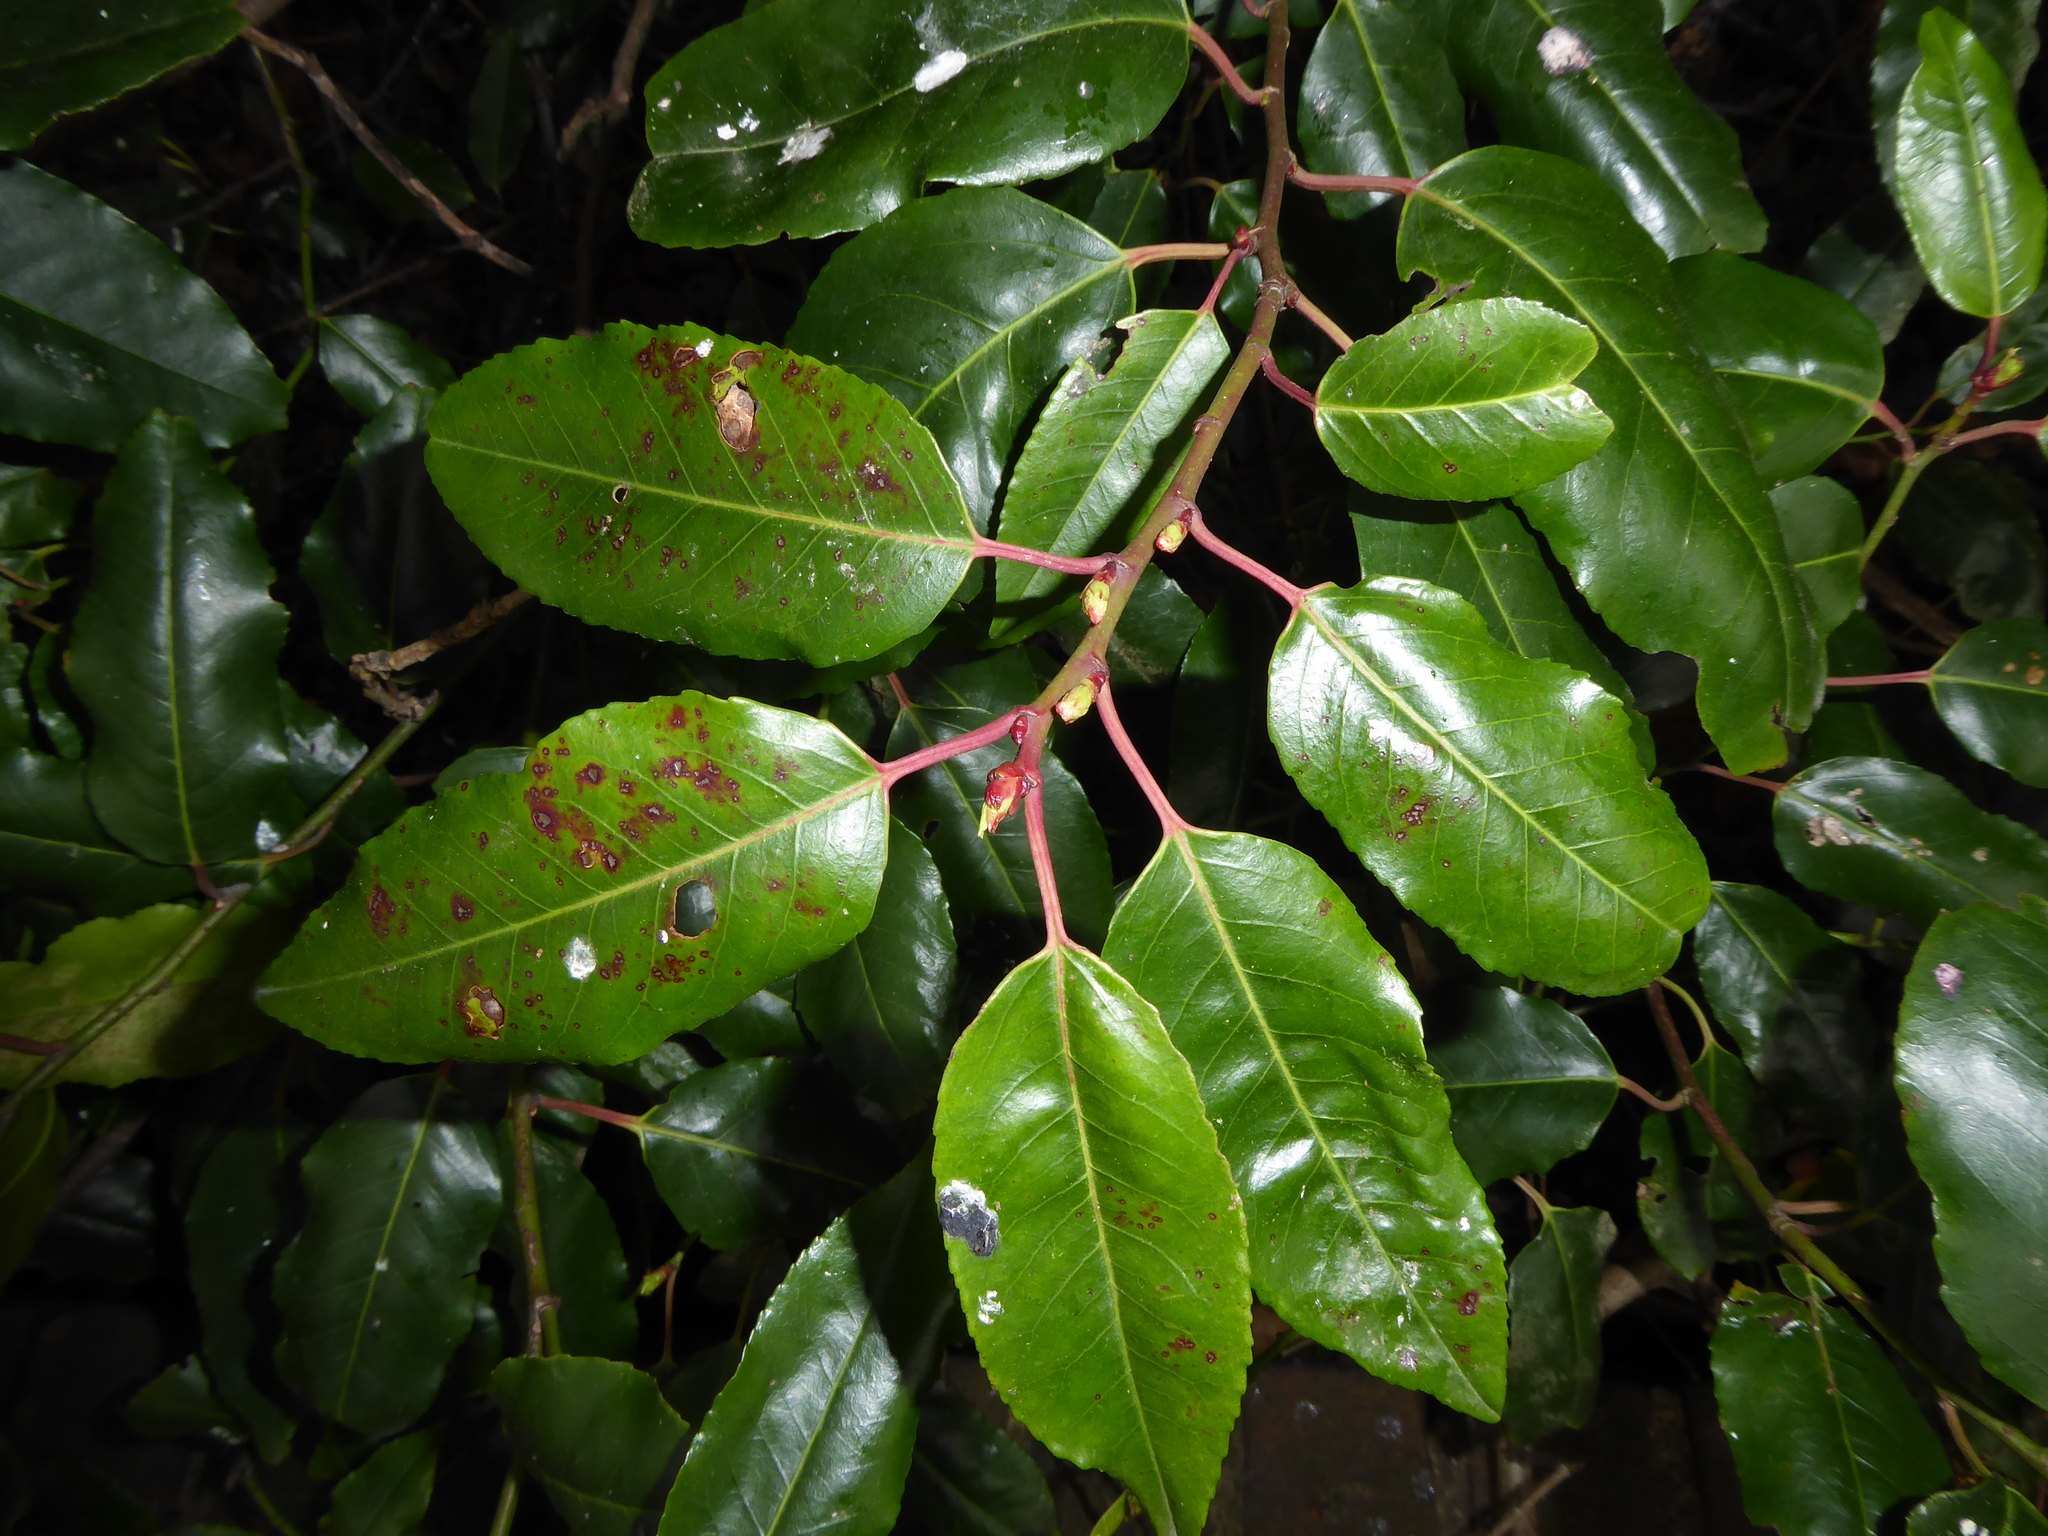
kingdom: Plantae
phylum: Tracheophyta
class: Magnoliopsida
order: Rosales
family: Rosaceae
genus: Prunus
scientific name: Prunus lusitanica
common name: Portugal laurel
